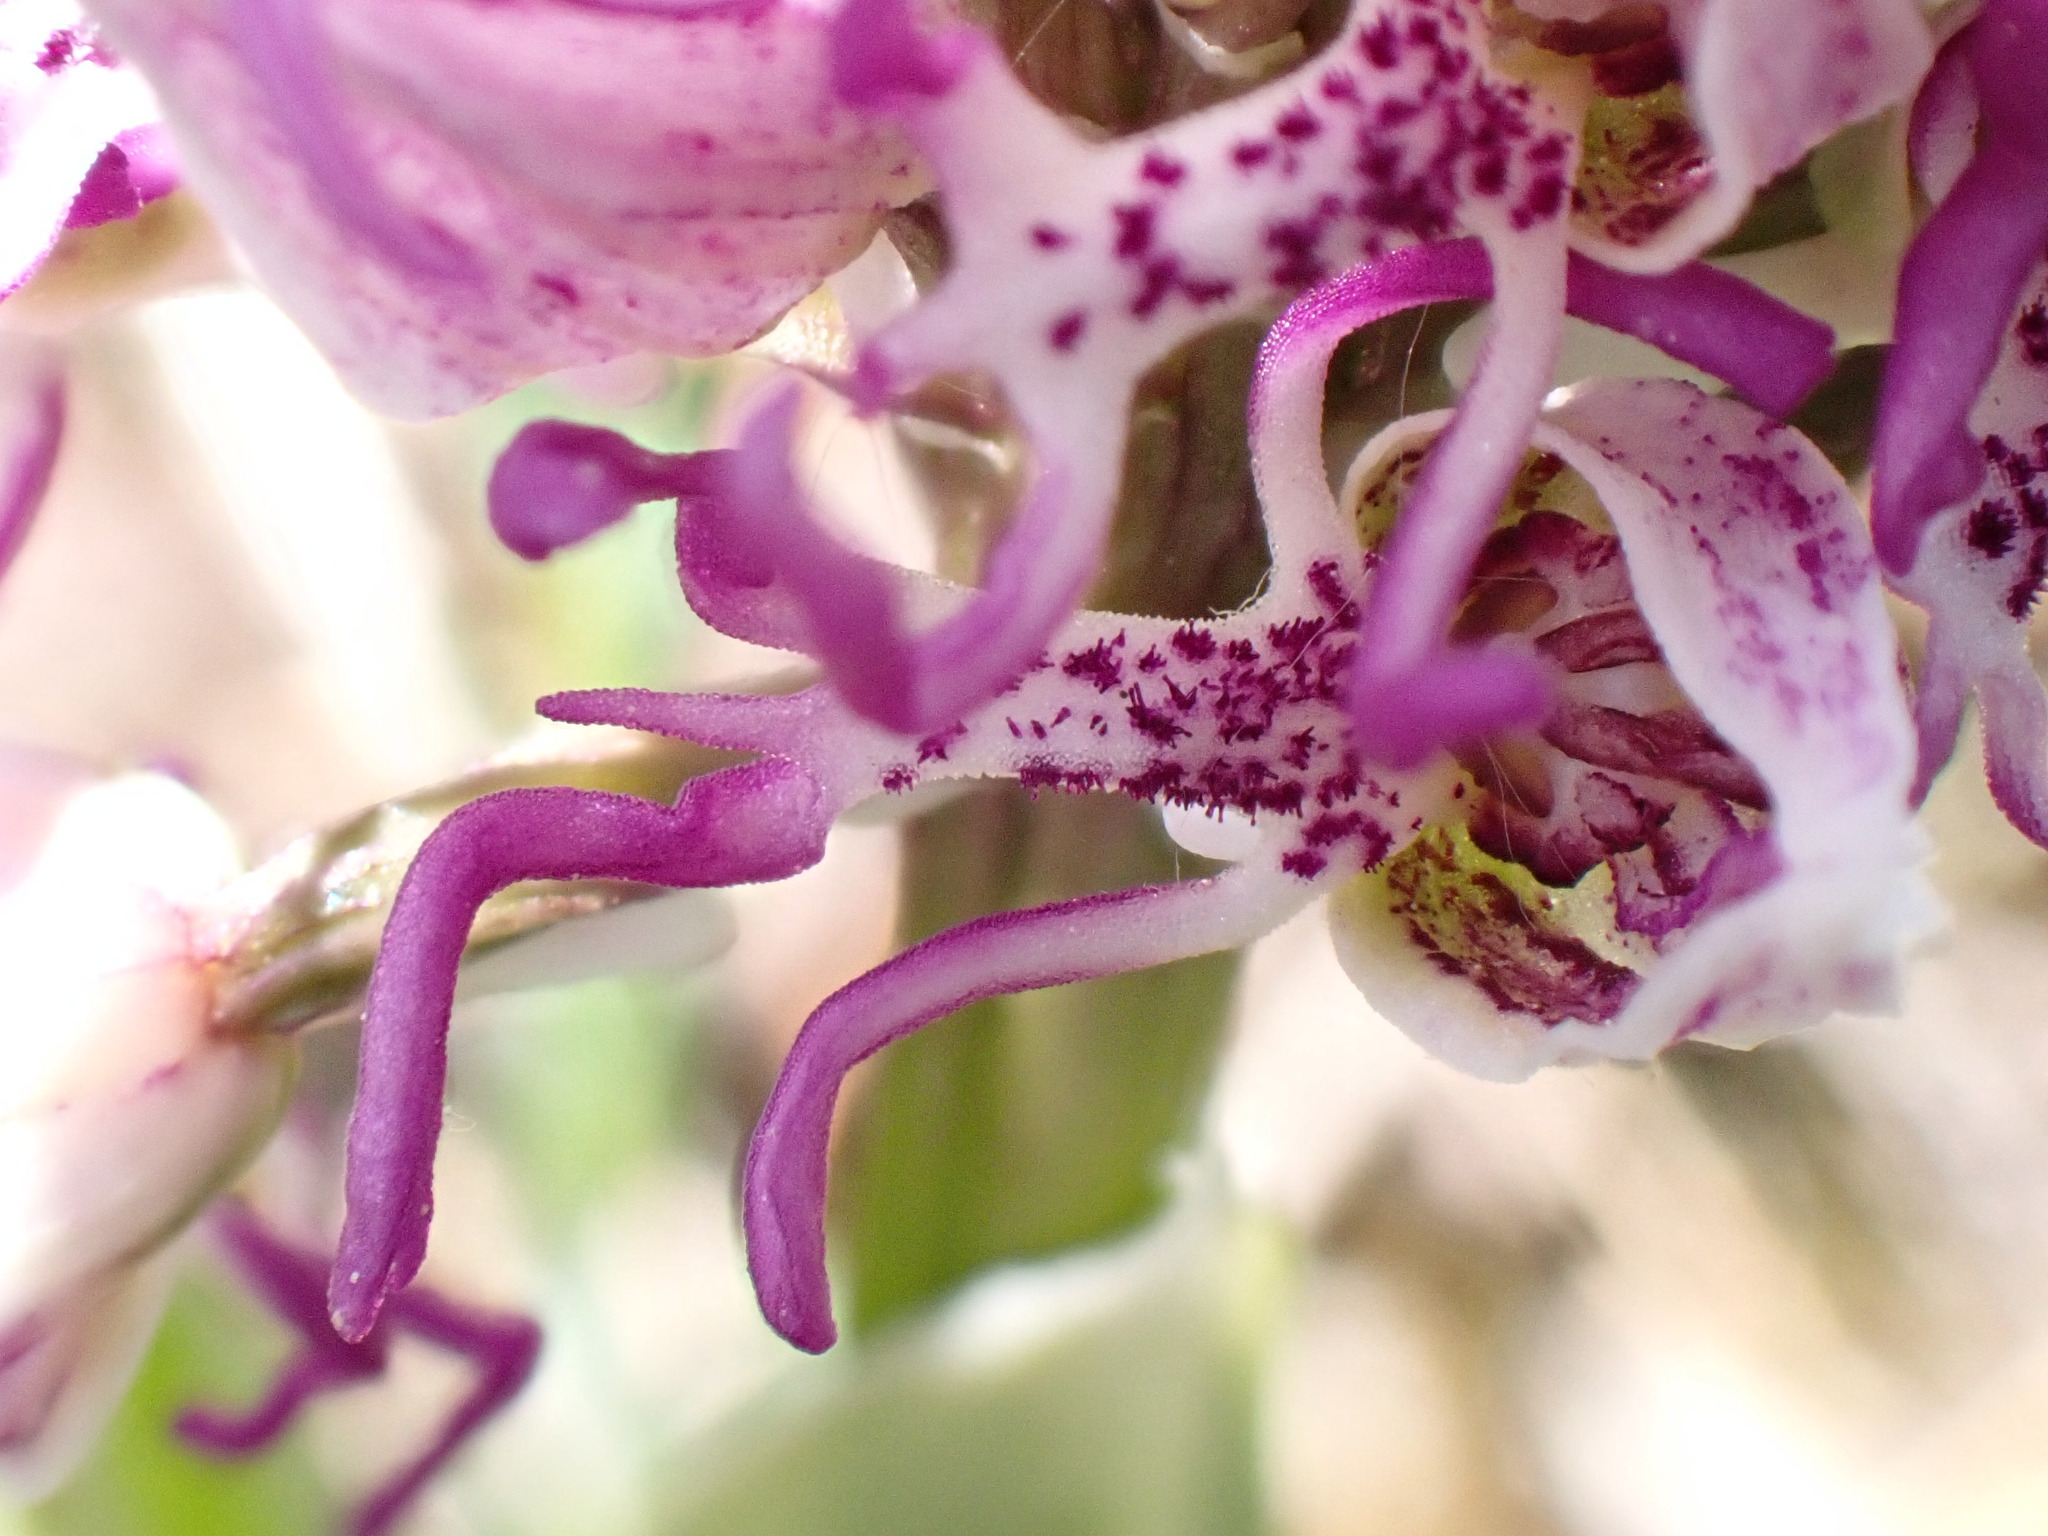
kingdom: Plantae
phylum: Tracheophyta
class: Liliopsida
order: Asparagales
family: Orchidaceae
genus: Orchis
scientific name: Orchis simia
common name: Monkey orchid
